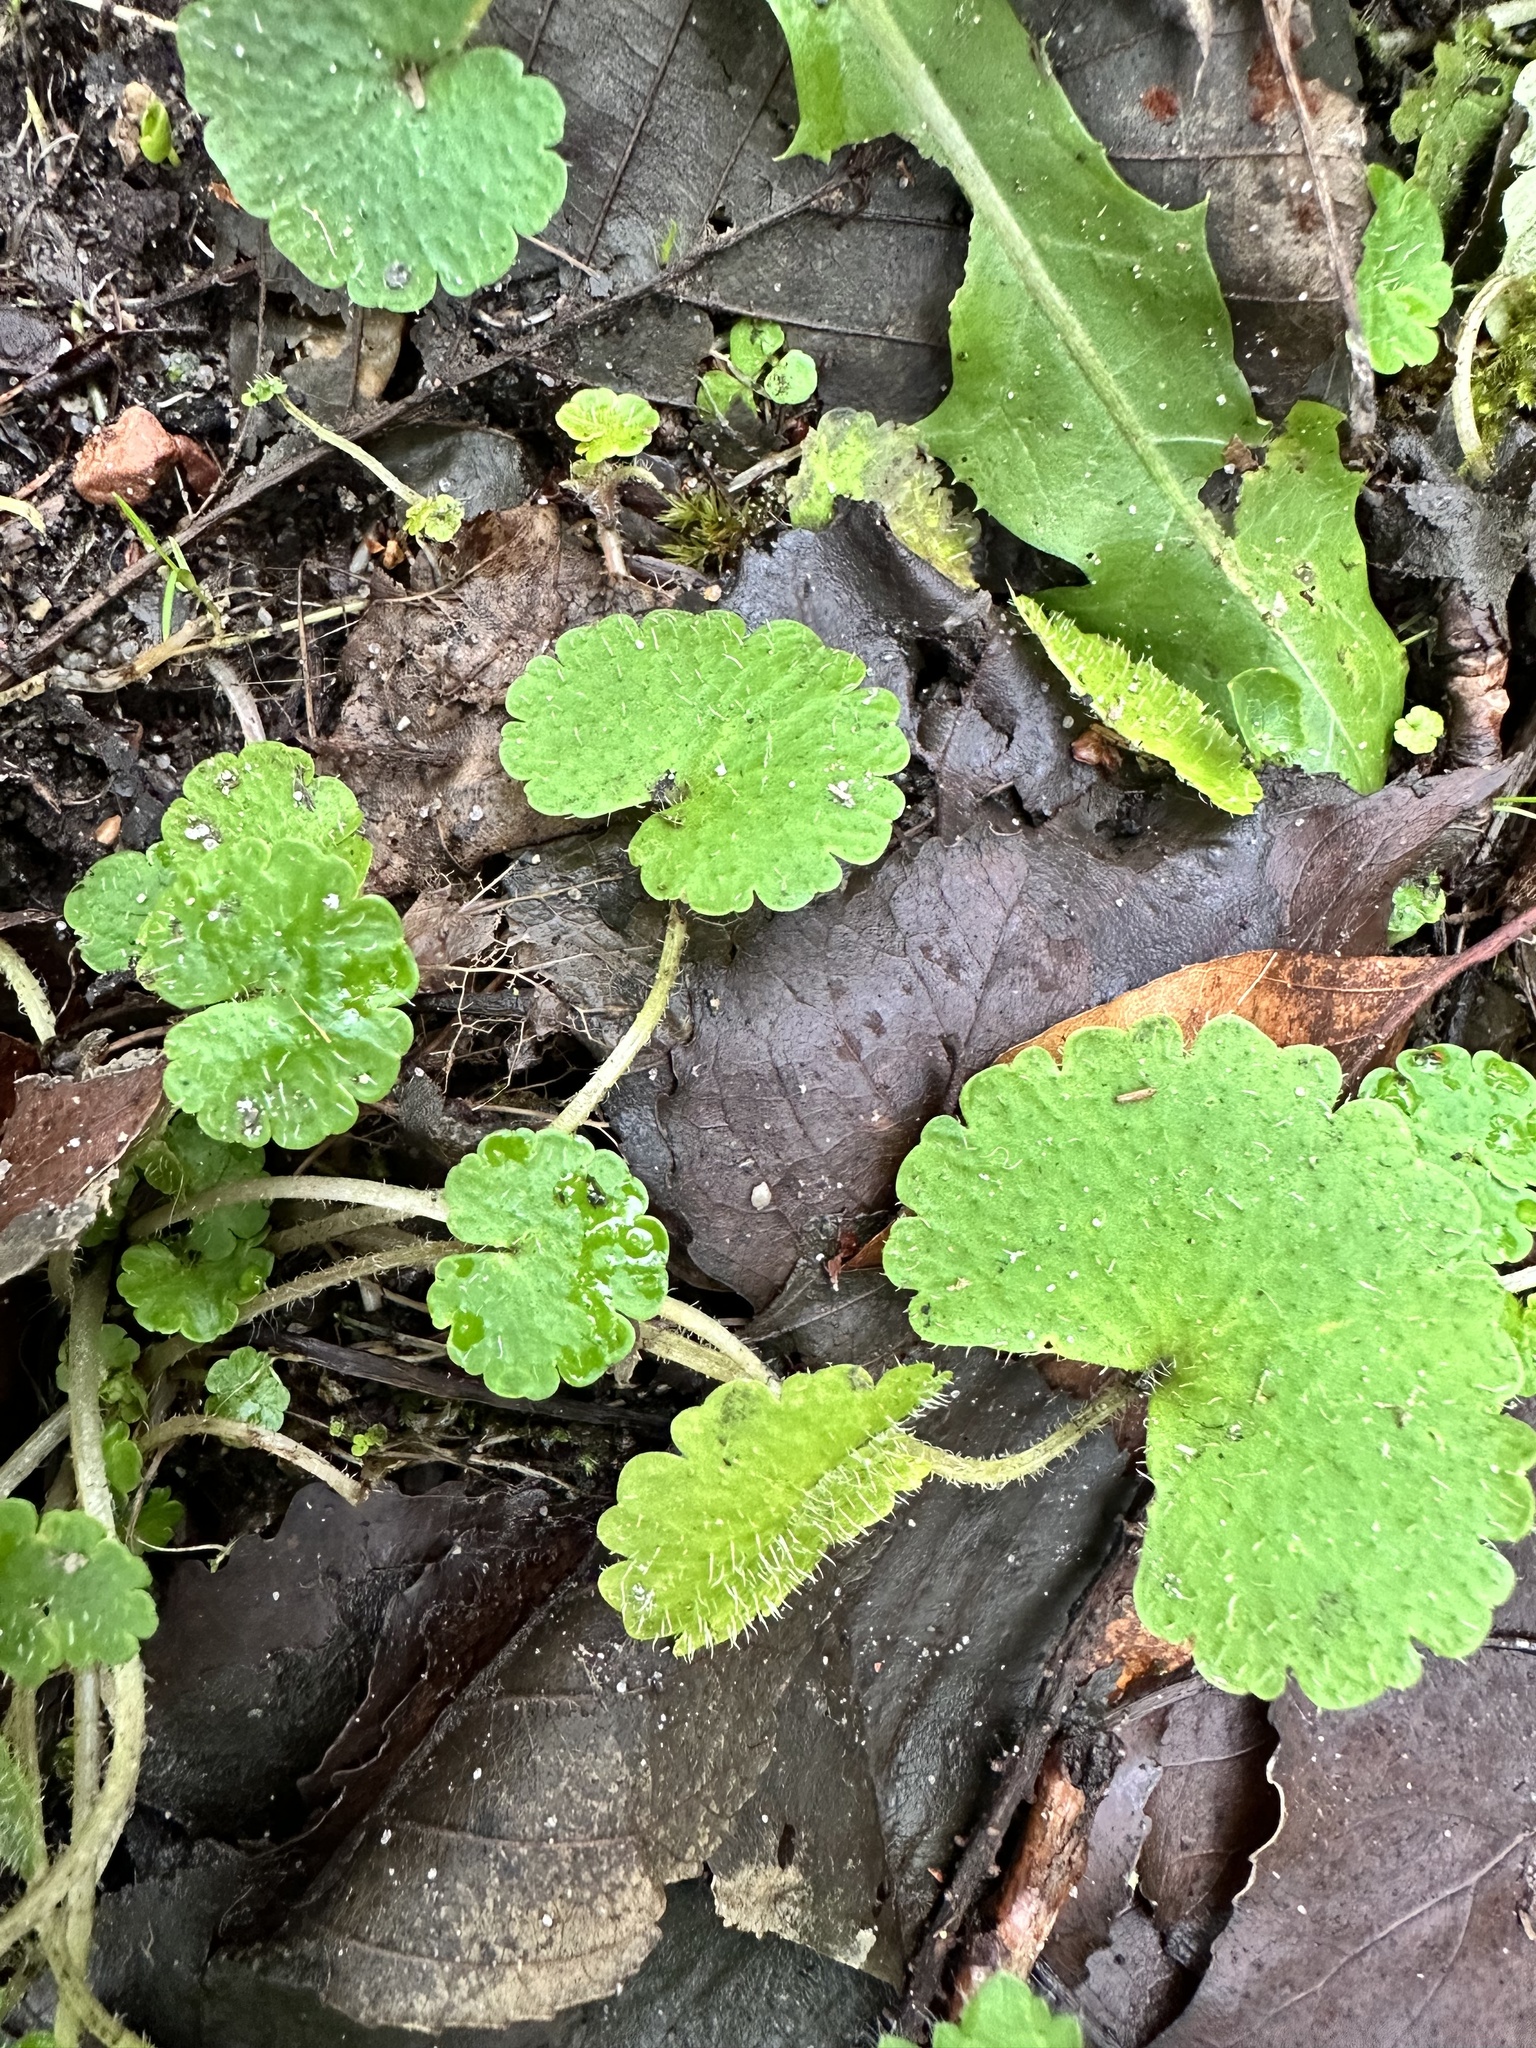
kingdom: Plantae
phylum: Tracheophyta
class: Magnoliopsida
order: Saxifragales
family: Saxifragaceae
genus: Chrysosplenium
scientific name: Chrysosplenium alternifolium
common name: Alternate-leaved golden-saxifrage
